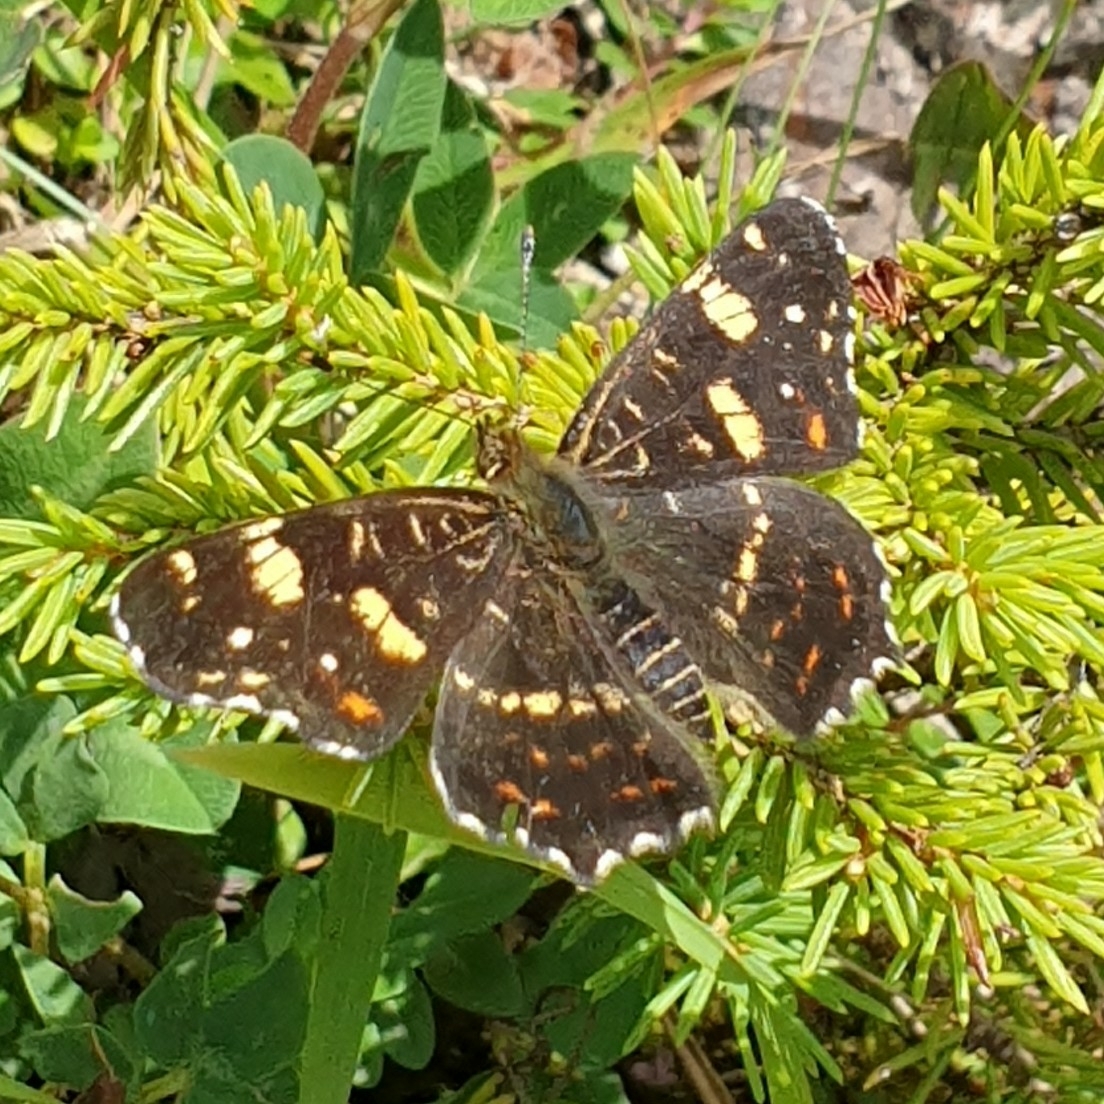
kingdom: Animalia
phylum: Arthropoda
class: Insecta
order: Lepidoptera
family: Nymphalidae
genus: Araschnia
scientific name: Araschnia levana
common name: Map butterfly
